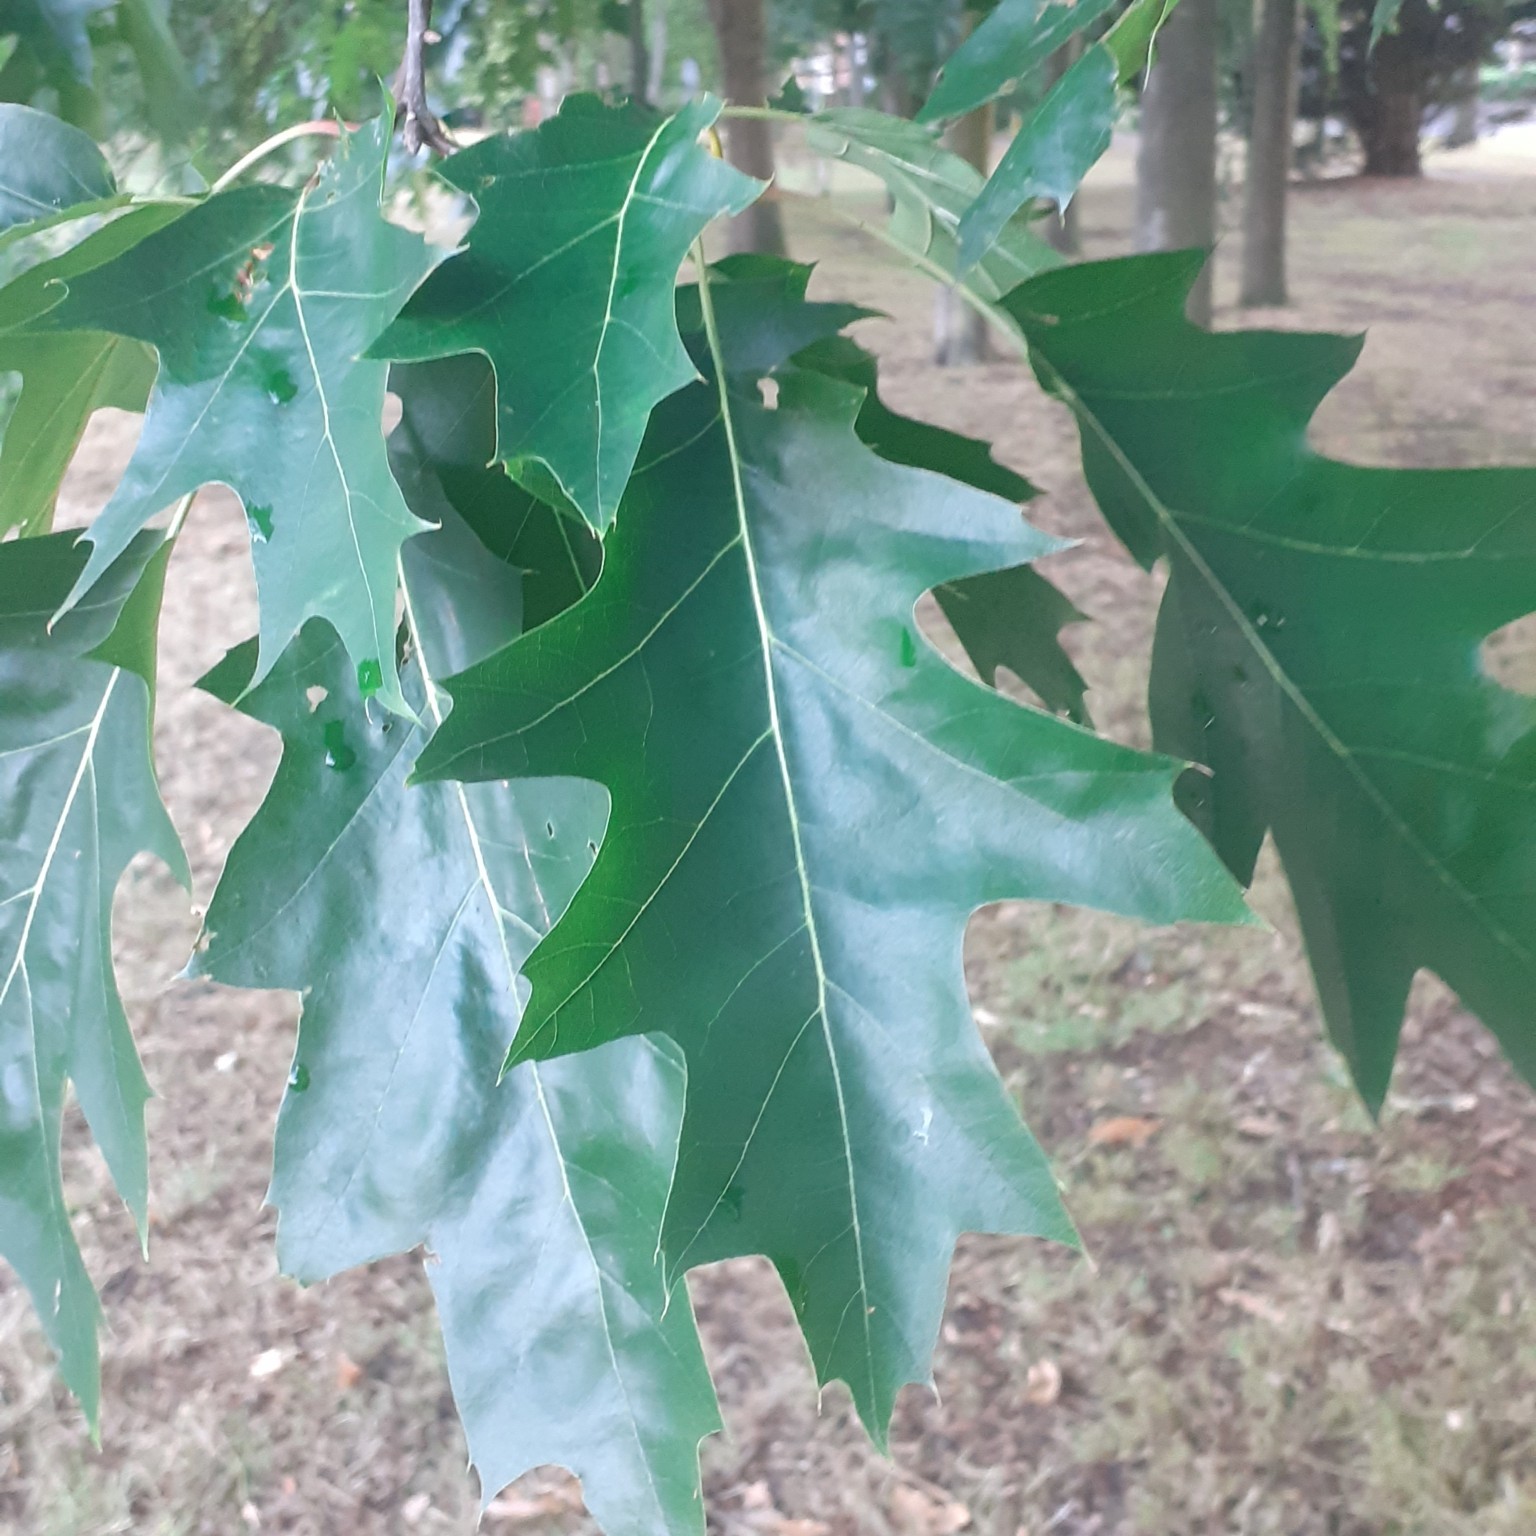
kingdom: Plantae
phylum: Tracheophyta
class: Magnoliopsida
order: Fagales
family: Fagaceae
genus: Quercus
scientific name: Quercus rubra
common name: Red oak
